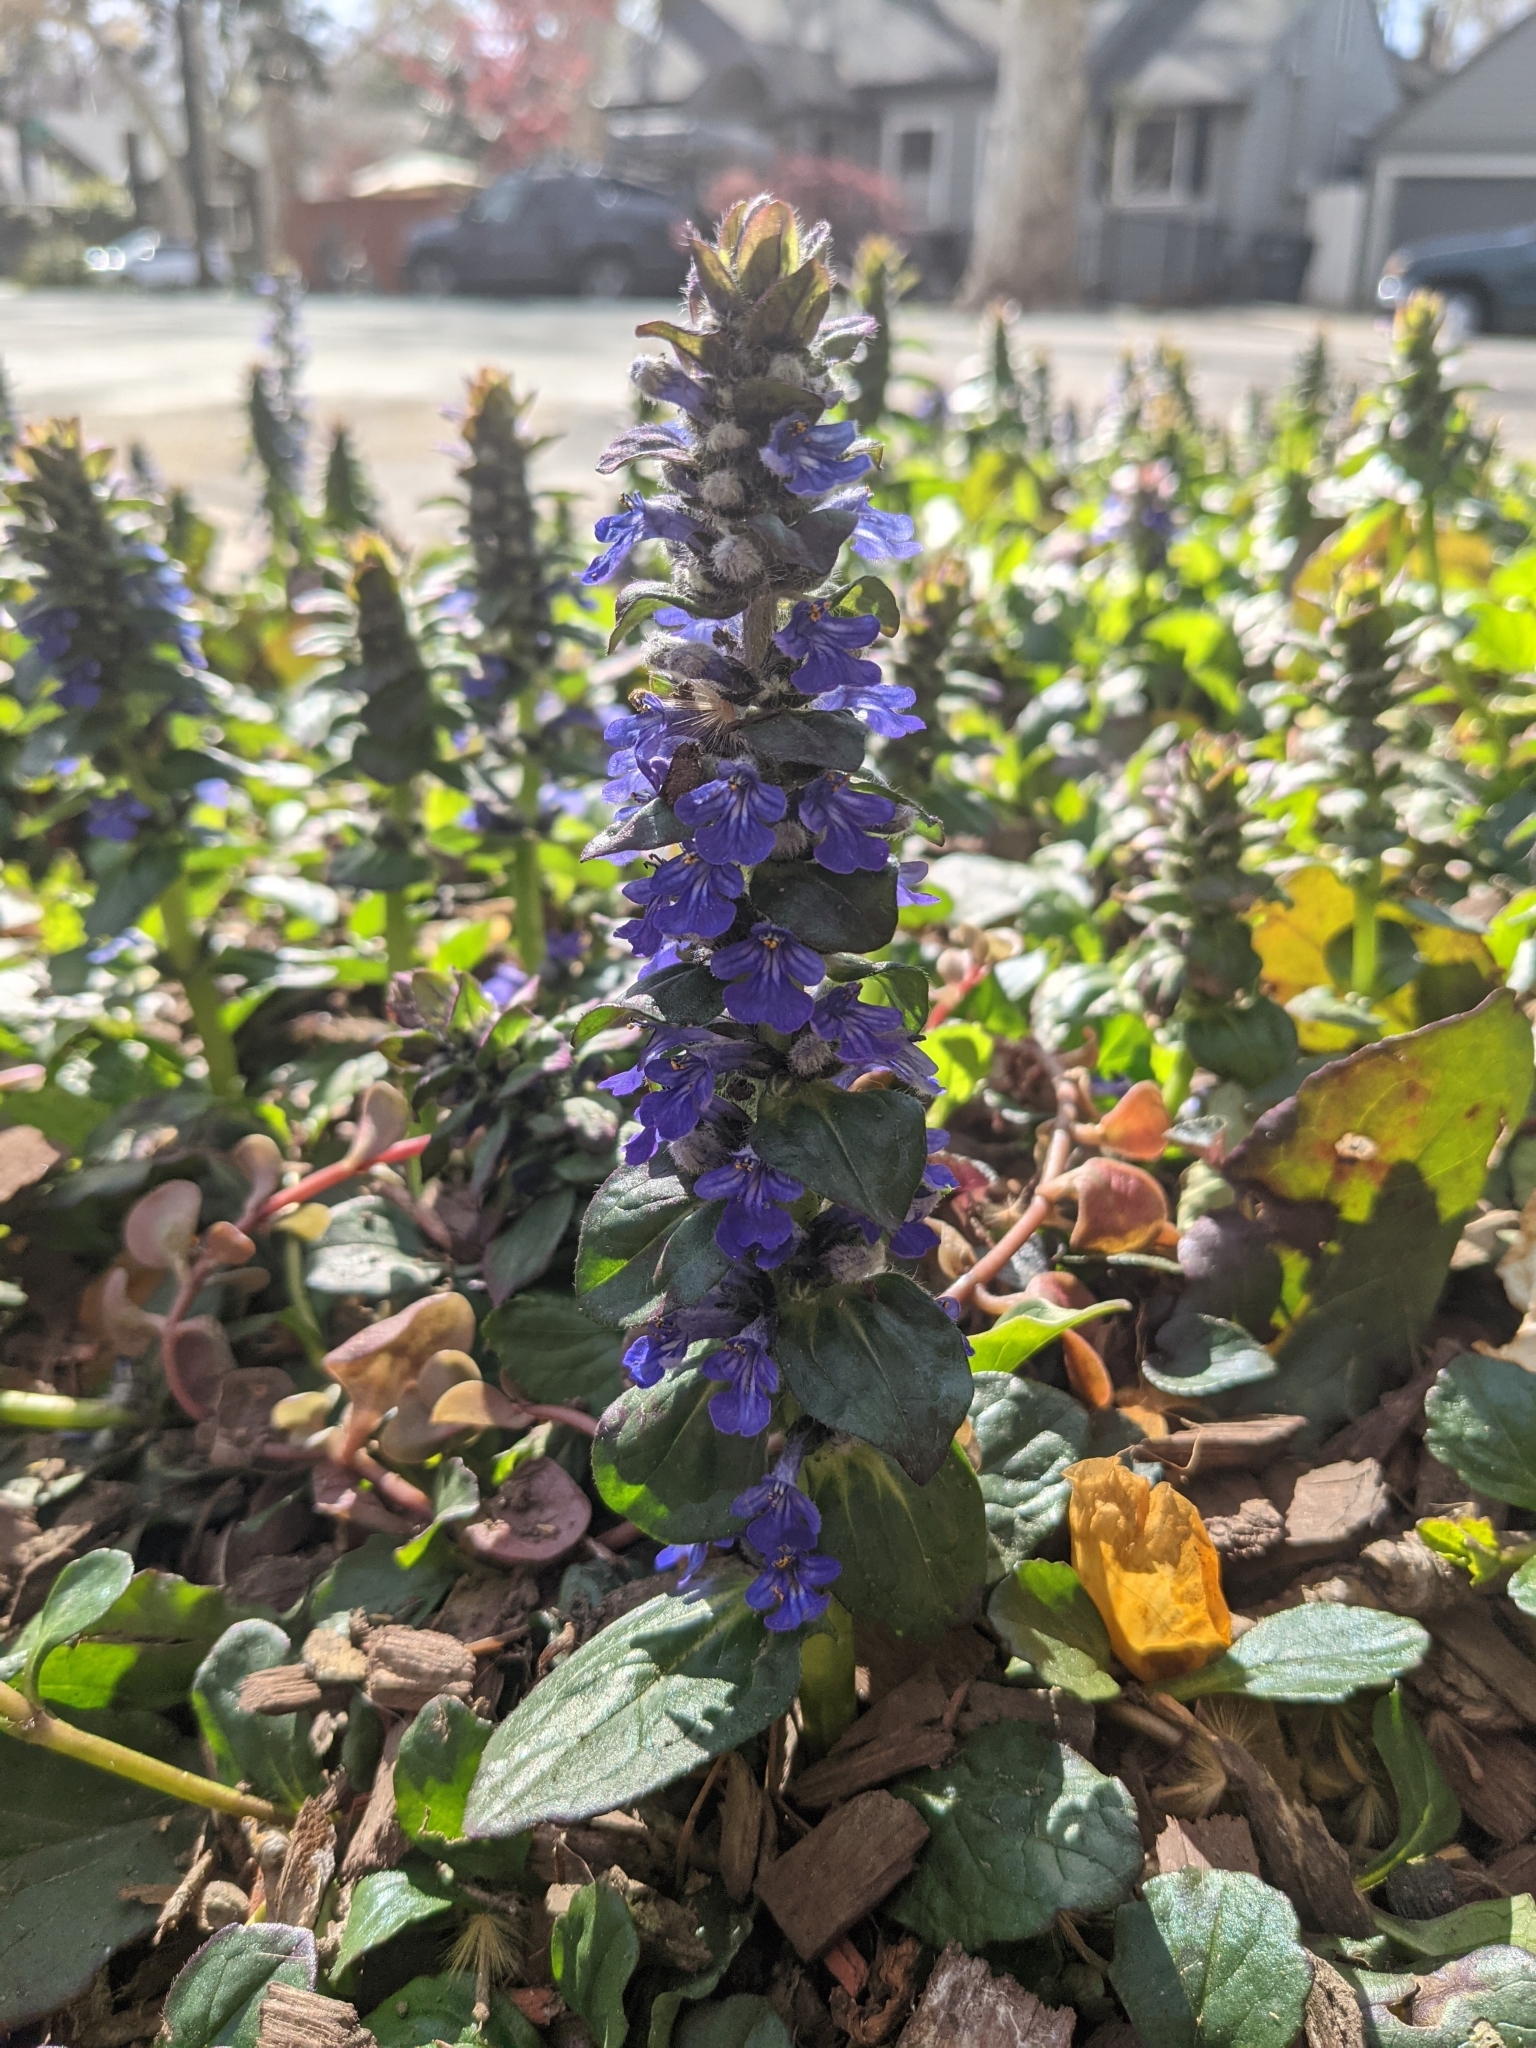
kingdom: Plantae
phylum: Tracheophyta
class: Magnoliopsida
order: Lamiales
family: Lamiaceae
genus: Ajuga
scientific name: Ajuga reptans
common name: Bugle
